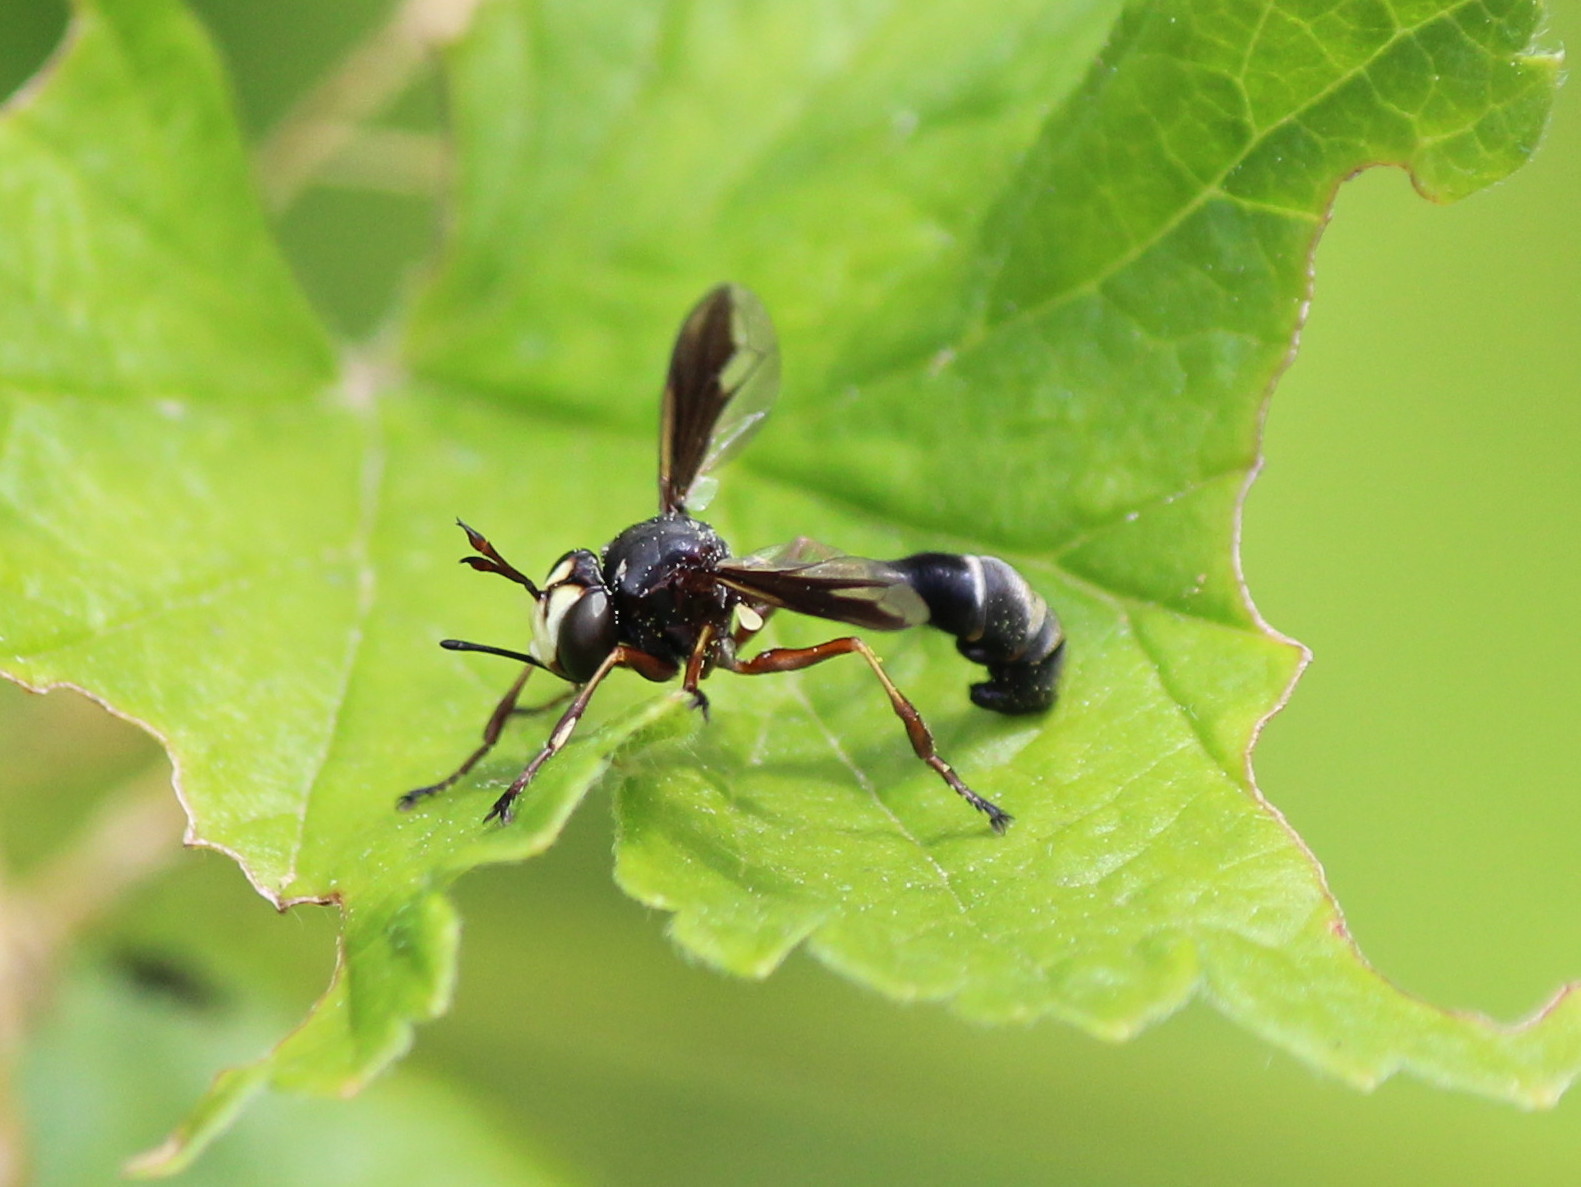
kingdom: Animalia
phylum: Arthropoda
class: Insecta
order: Diptera
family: Conopidae
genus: Physocephala
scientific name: Physocephala furcillata
